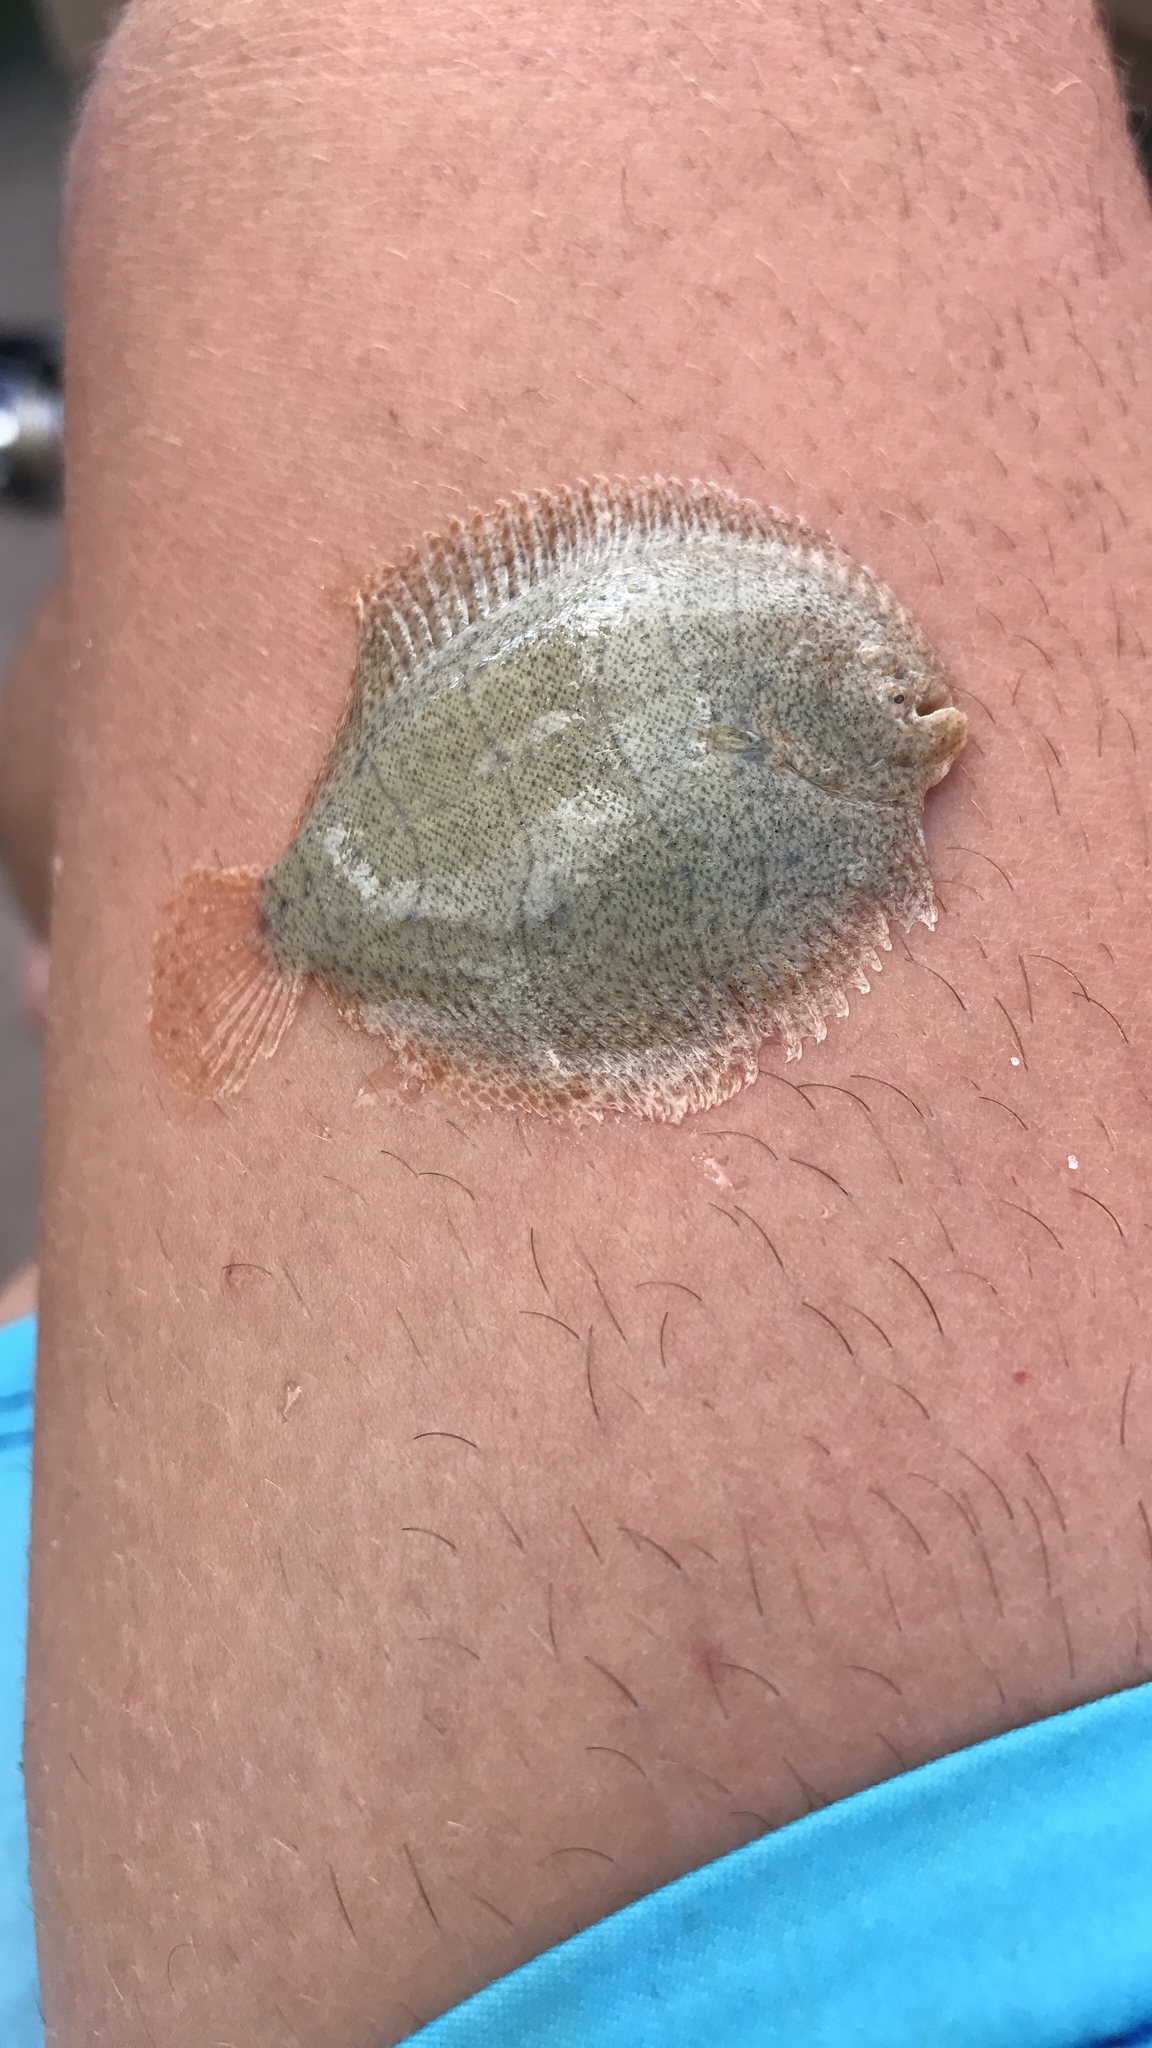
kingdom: Animalia
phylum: Chordata
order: Pleuronectiformes
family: Achiridae
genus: Achirus
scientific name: Achirus lineatus
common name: Lined sole
